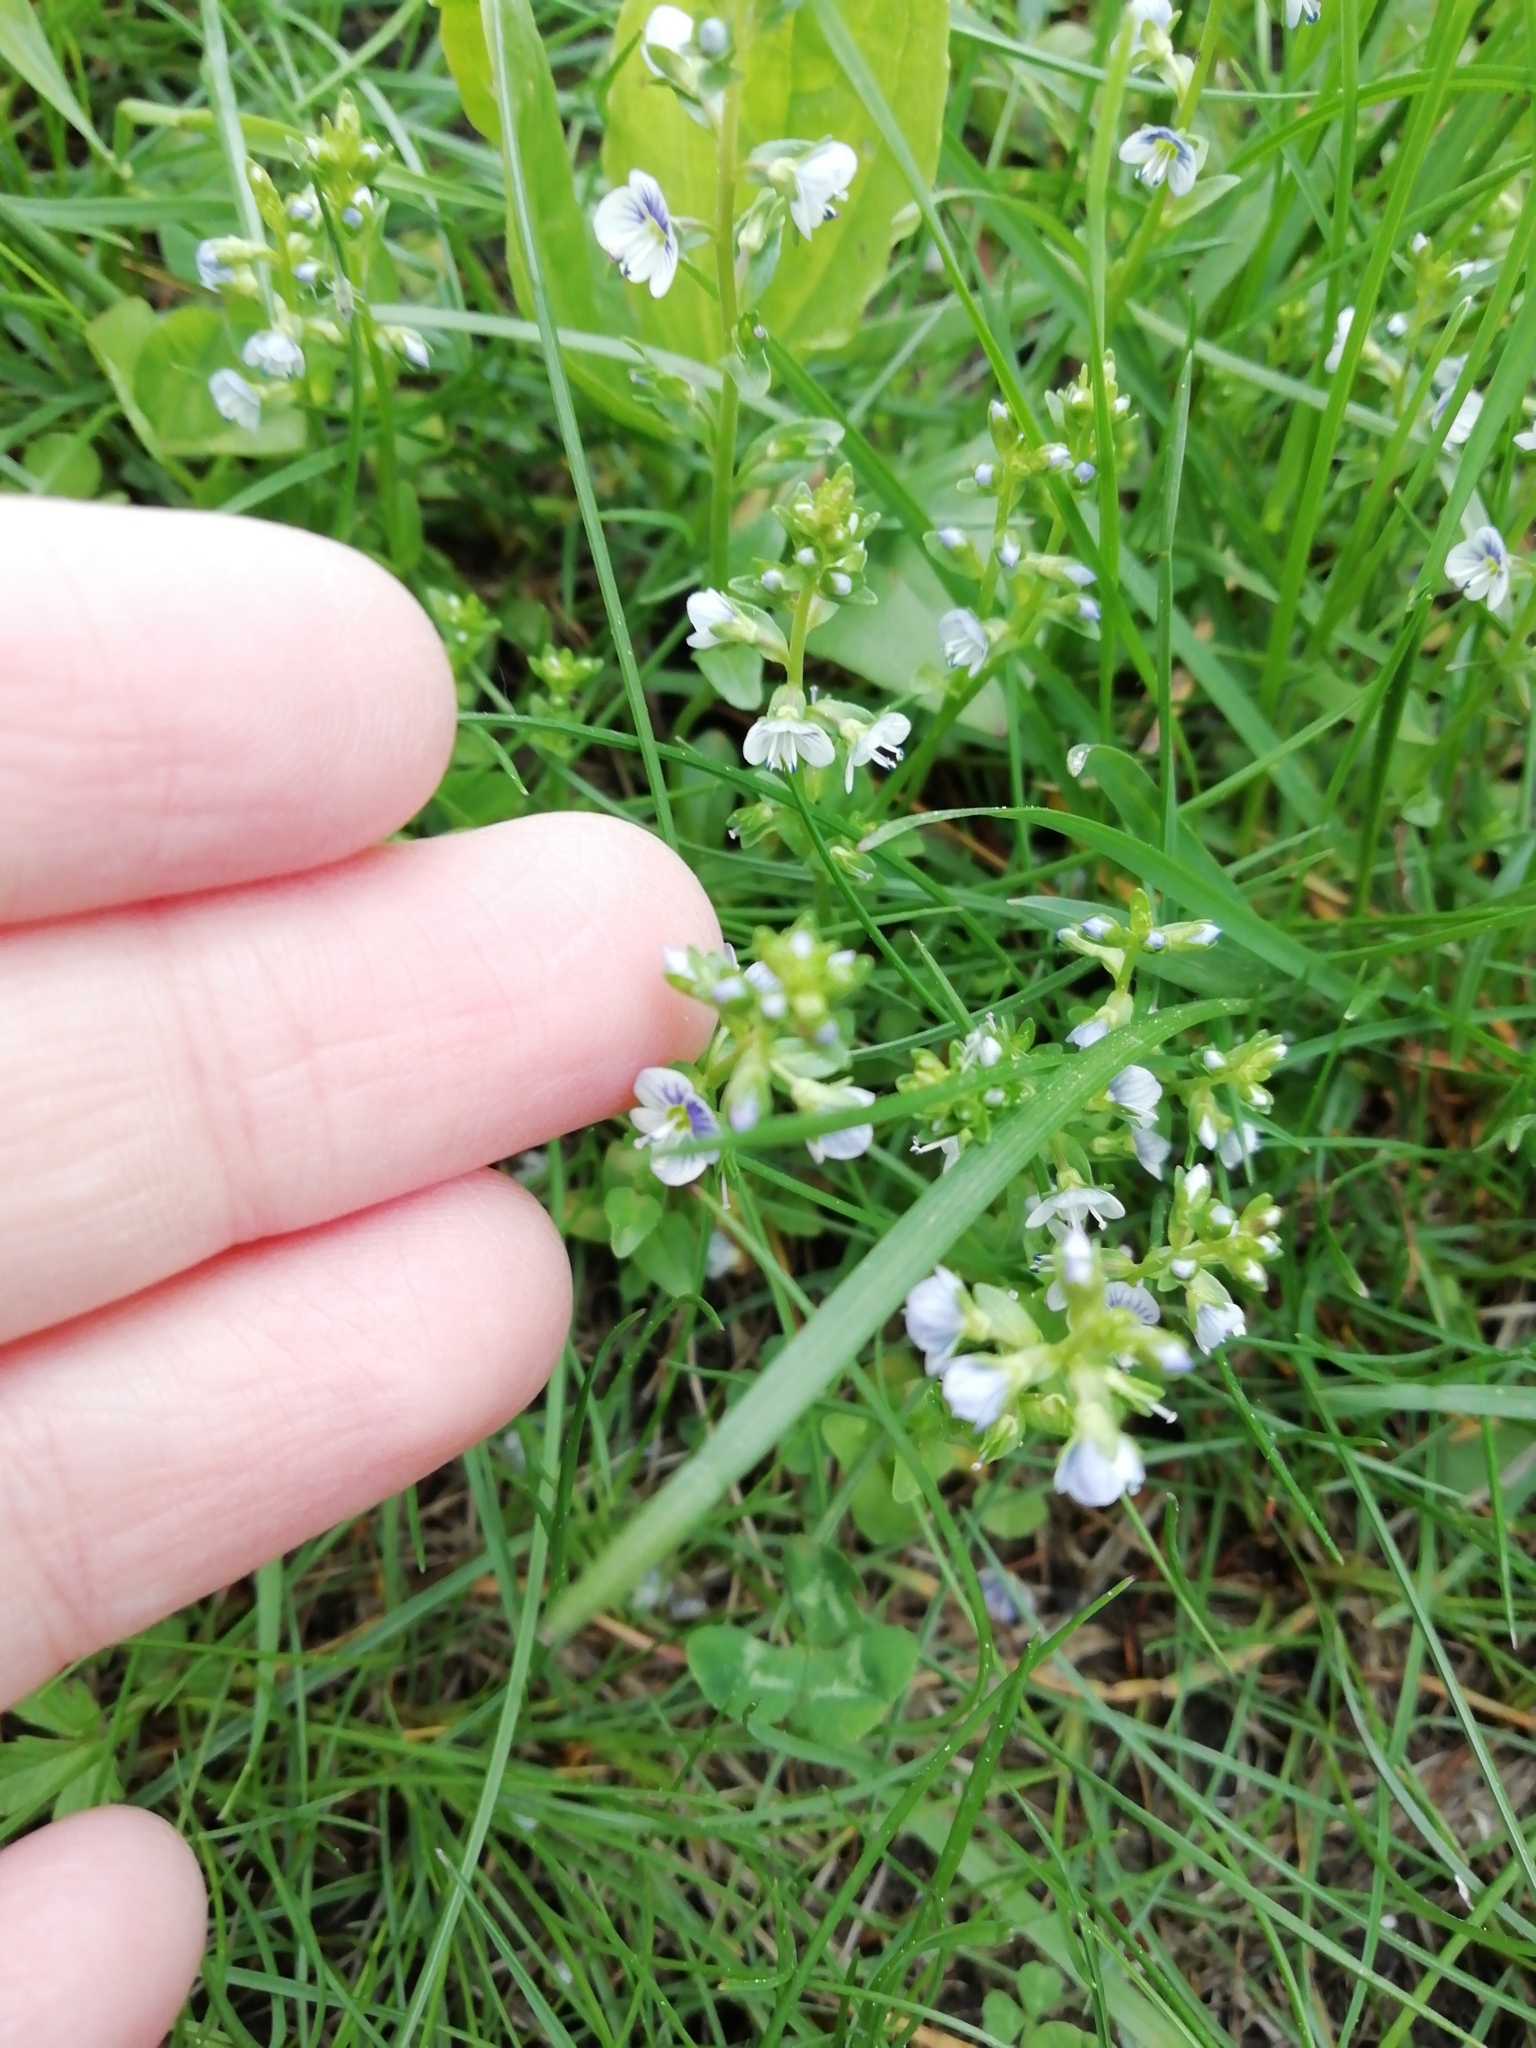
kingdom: Plantae
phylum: Tracheophyta
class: Magnoliopsida
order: Lamiales
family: Plantaginaceae
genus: Veronica
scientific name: Veronica serpyllifolia
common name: Thyme-leaved speedwell
